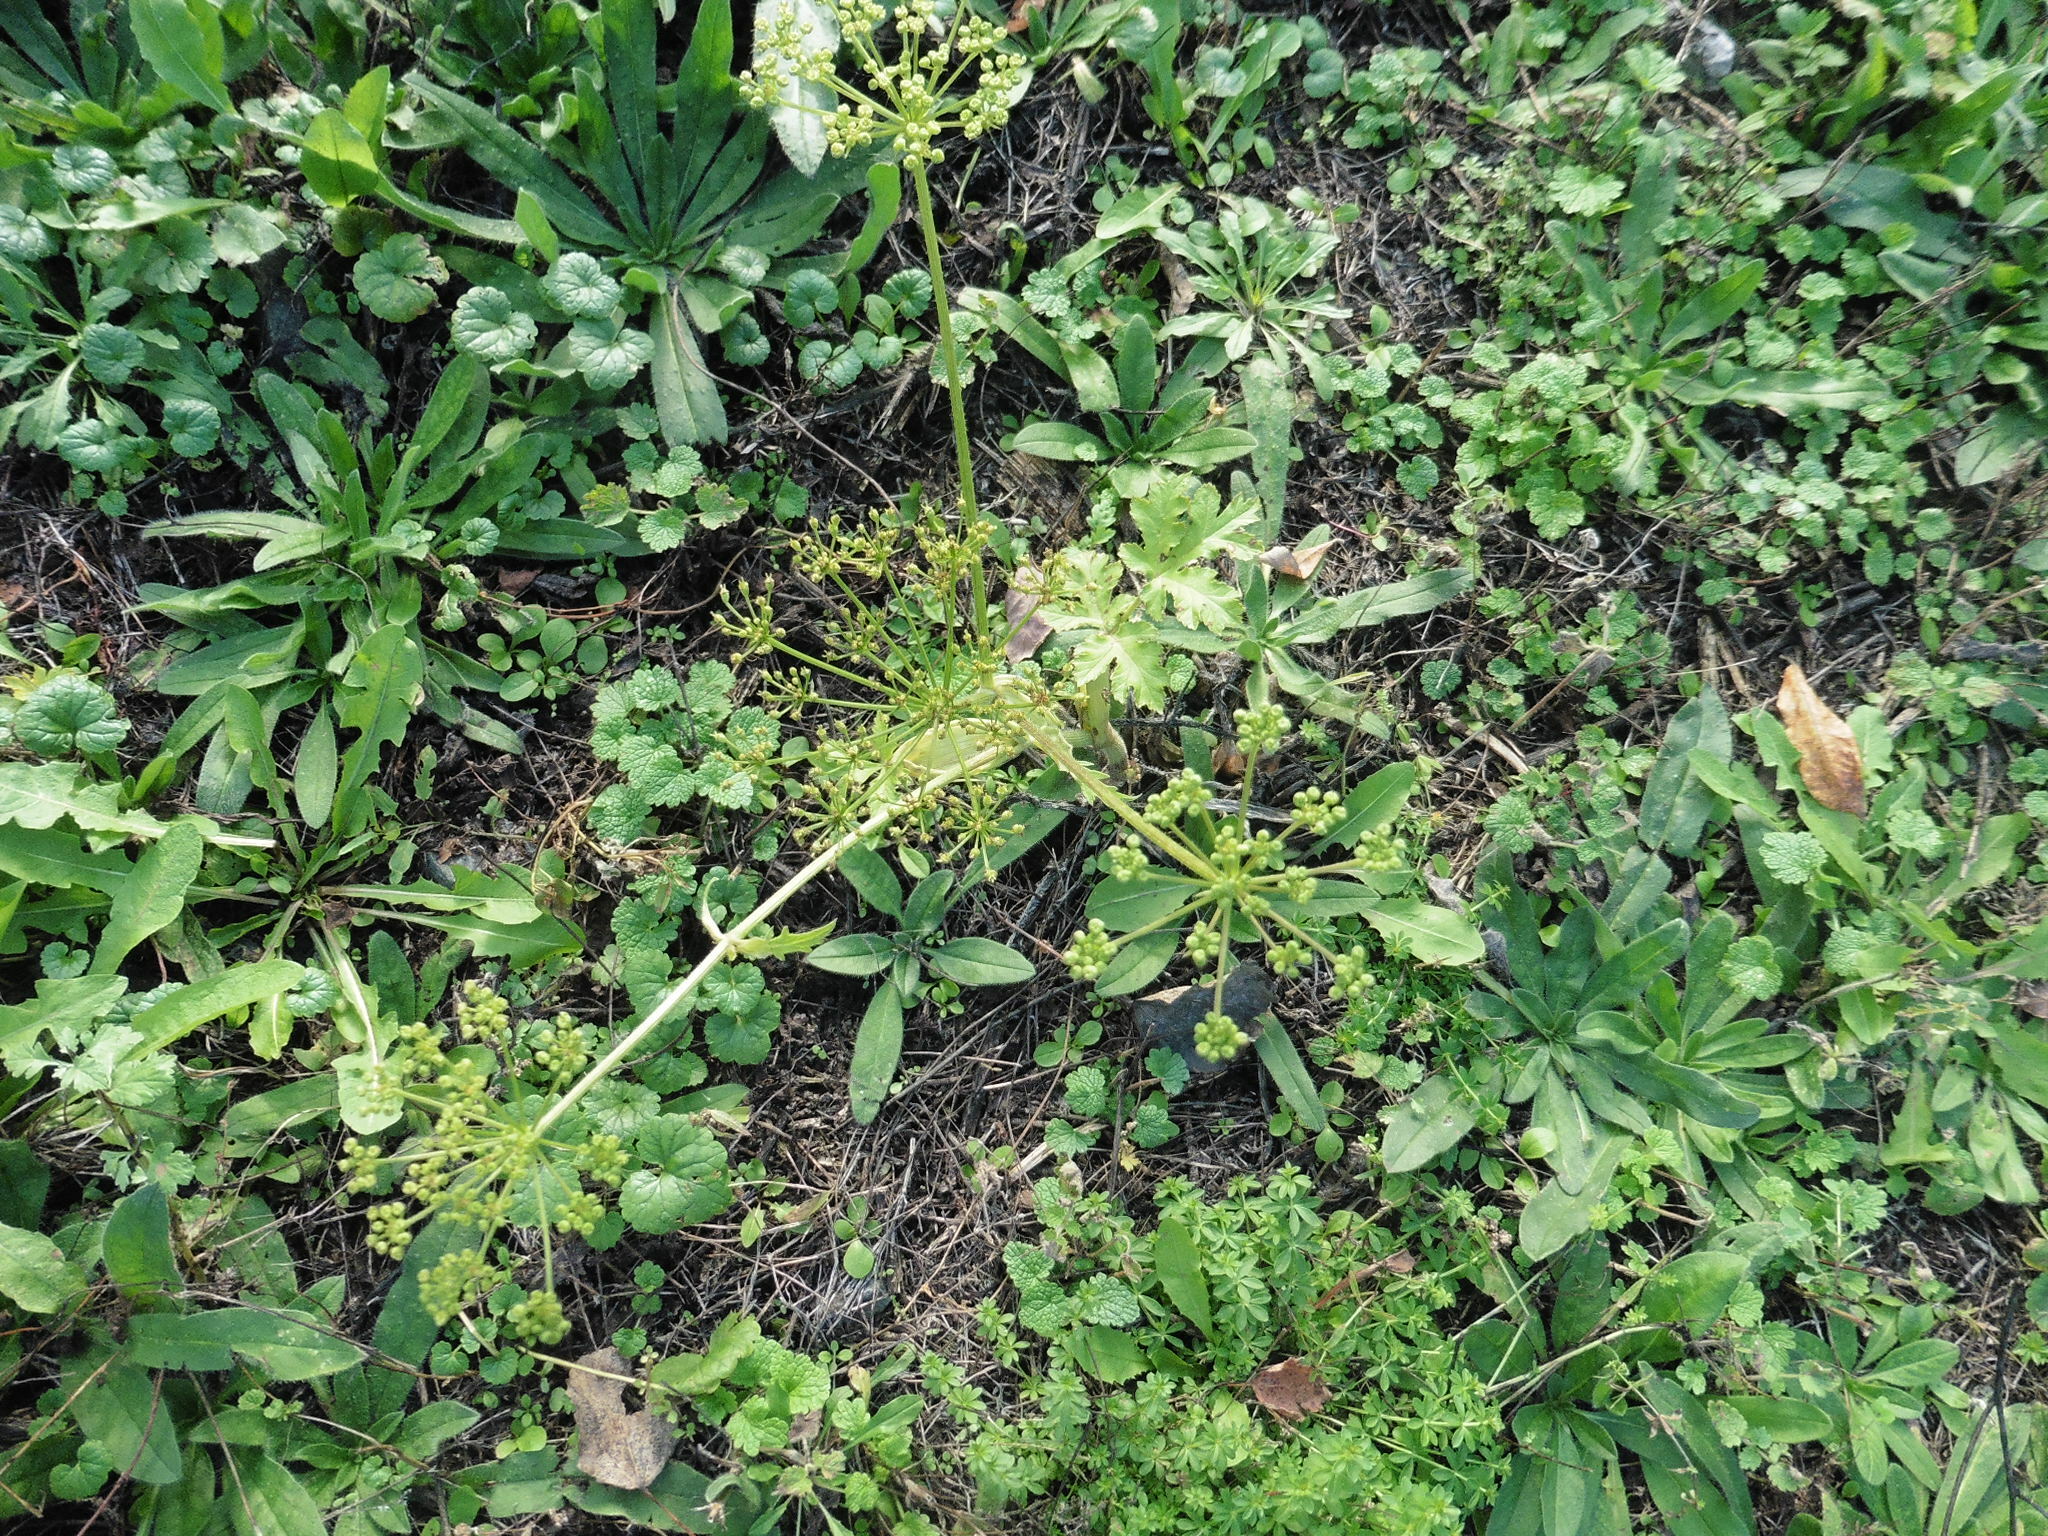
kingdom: Plantae
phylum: Tracheophyta
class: Magnoliopsida
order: Apiales
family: Apiaceae
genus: Pastinaca
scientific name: Pastinaca sativa
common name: Wild parsnip
